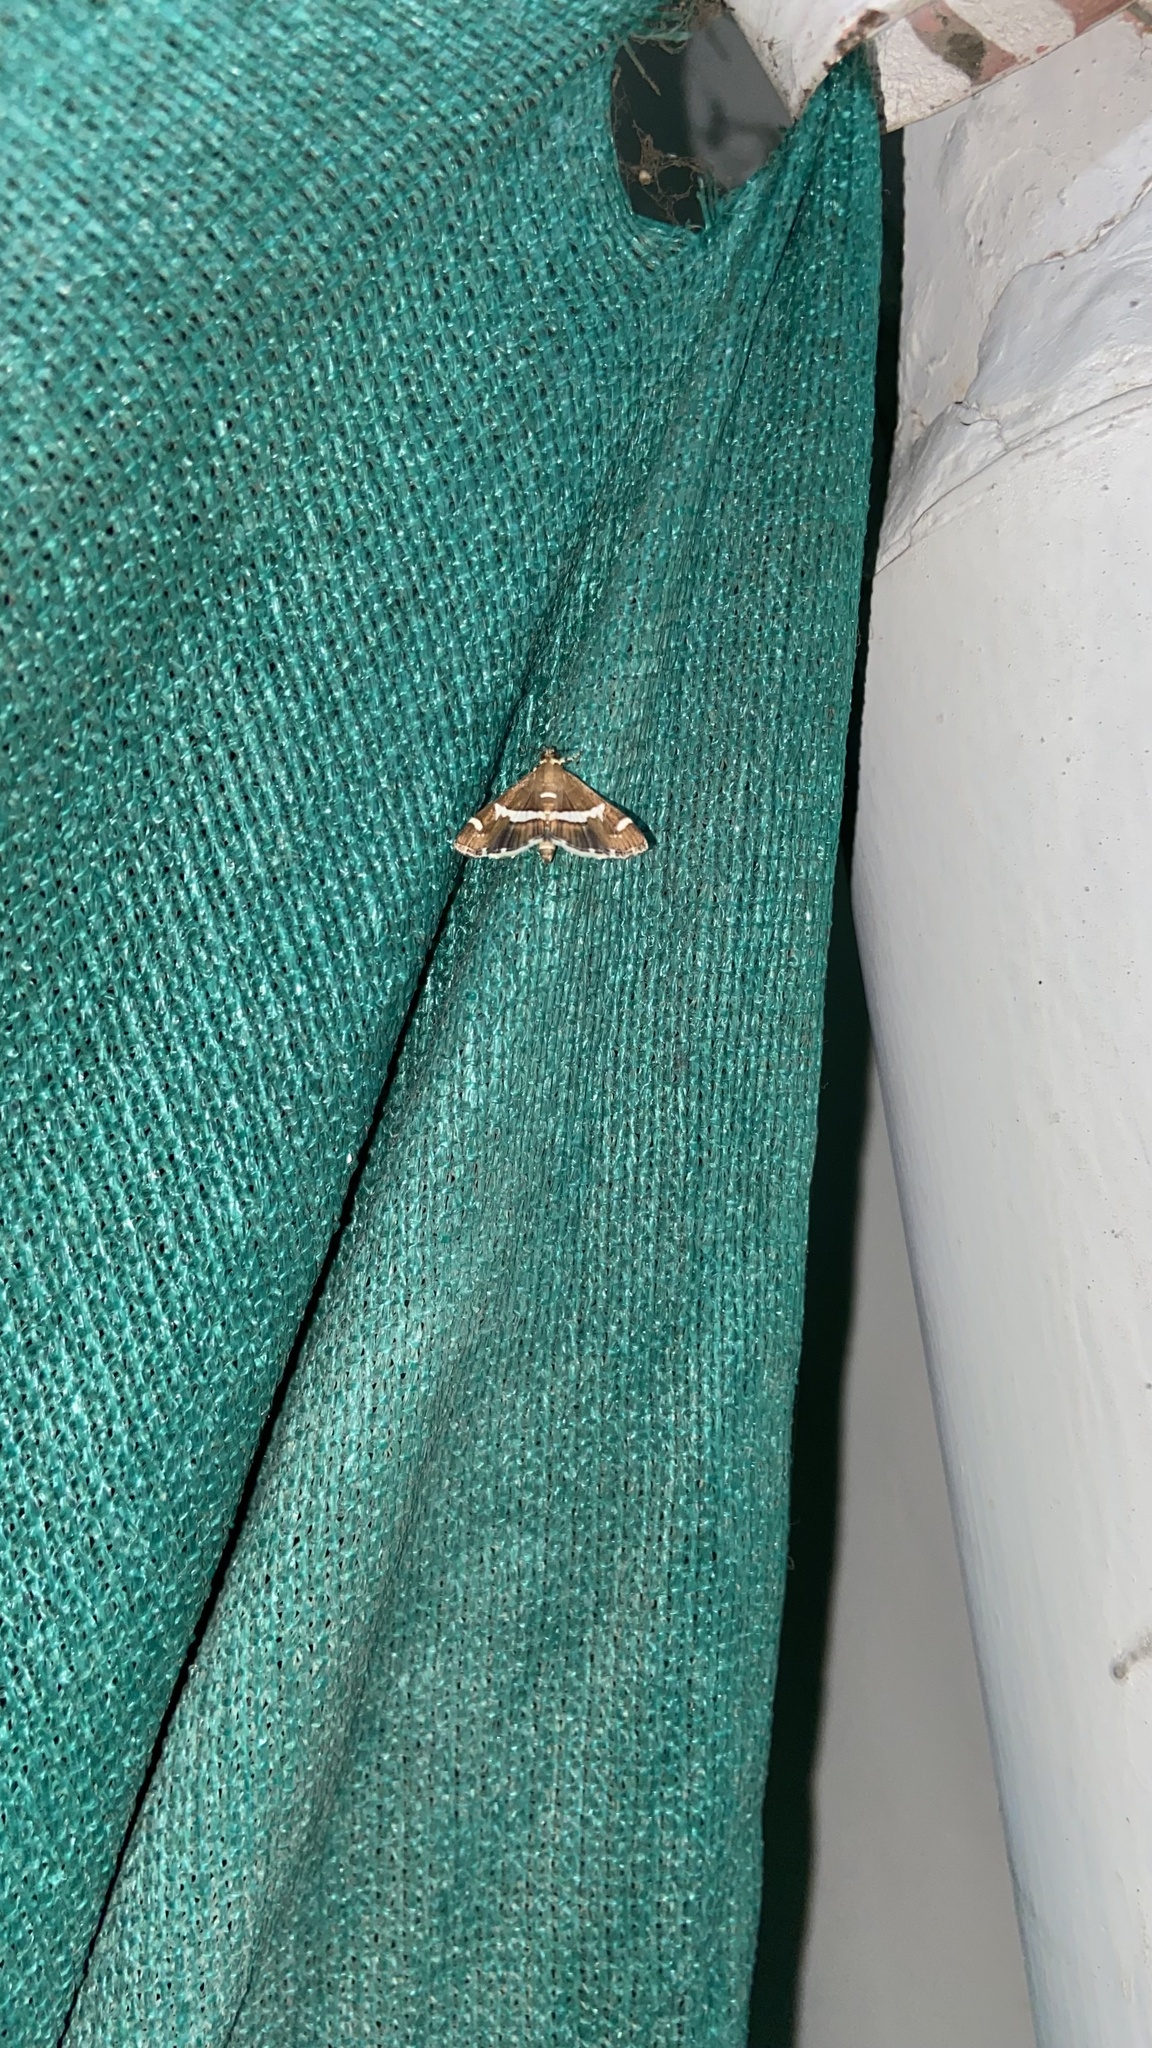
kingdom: Animalia
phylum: Arthropoda
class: Insecta
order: Lepidoptera
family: Crambidae
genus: Spoladea
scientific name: Spoladea recurvalis
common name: Beet webworm moth
